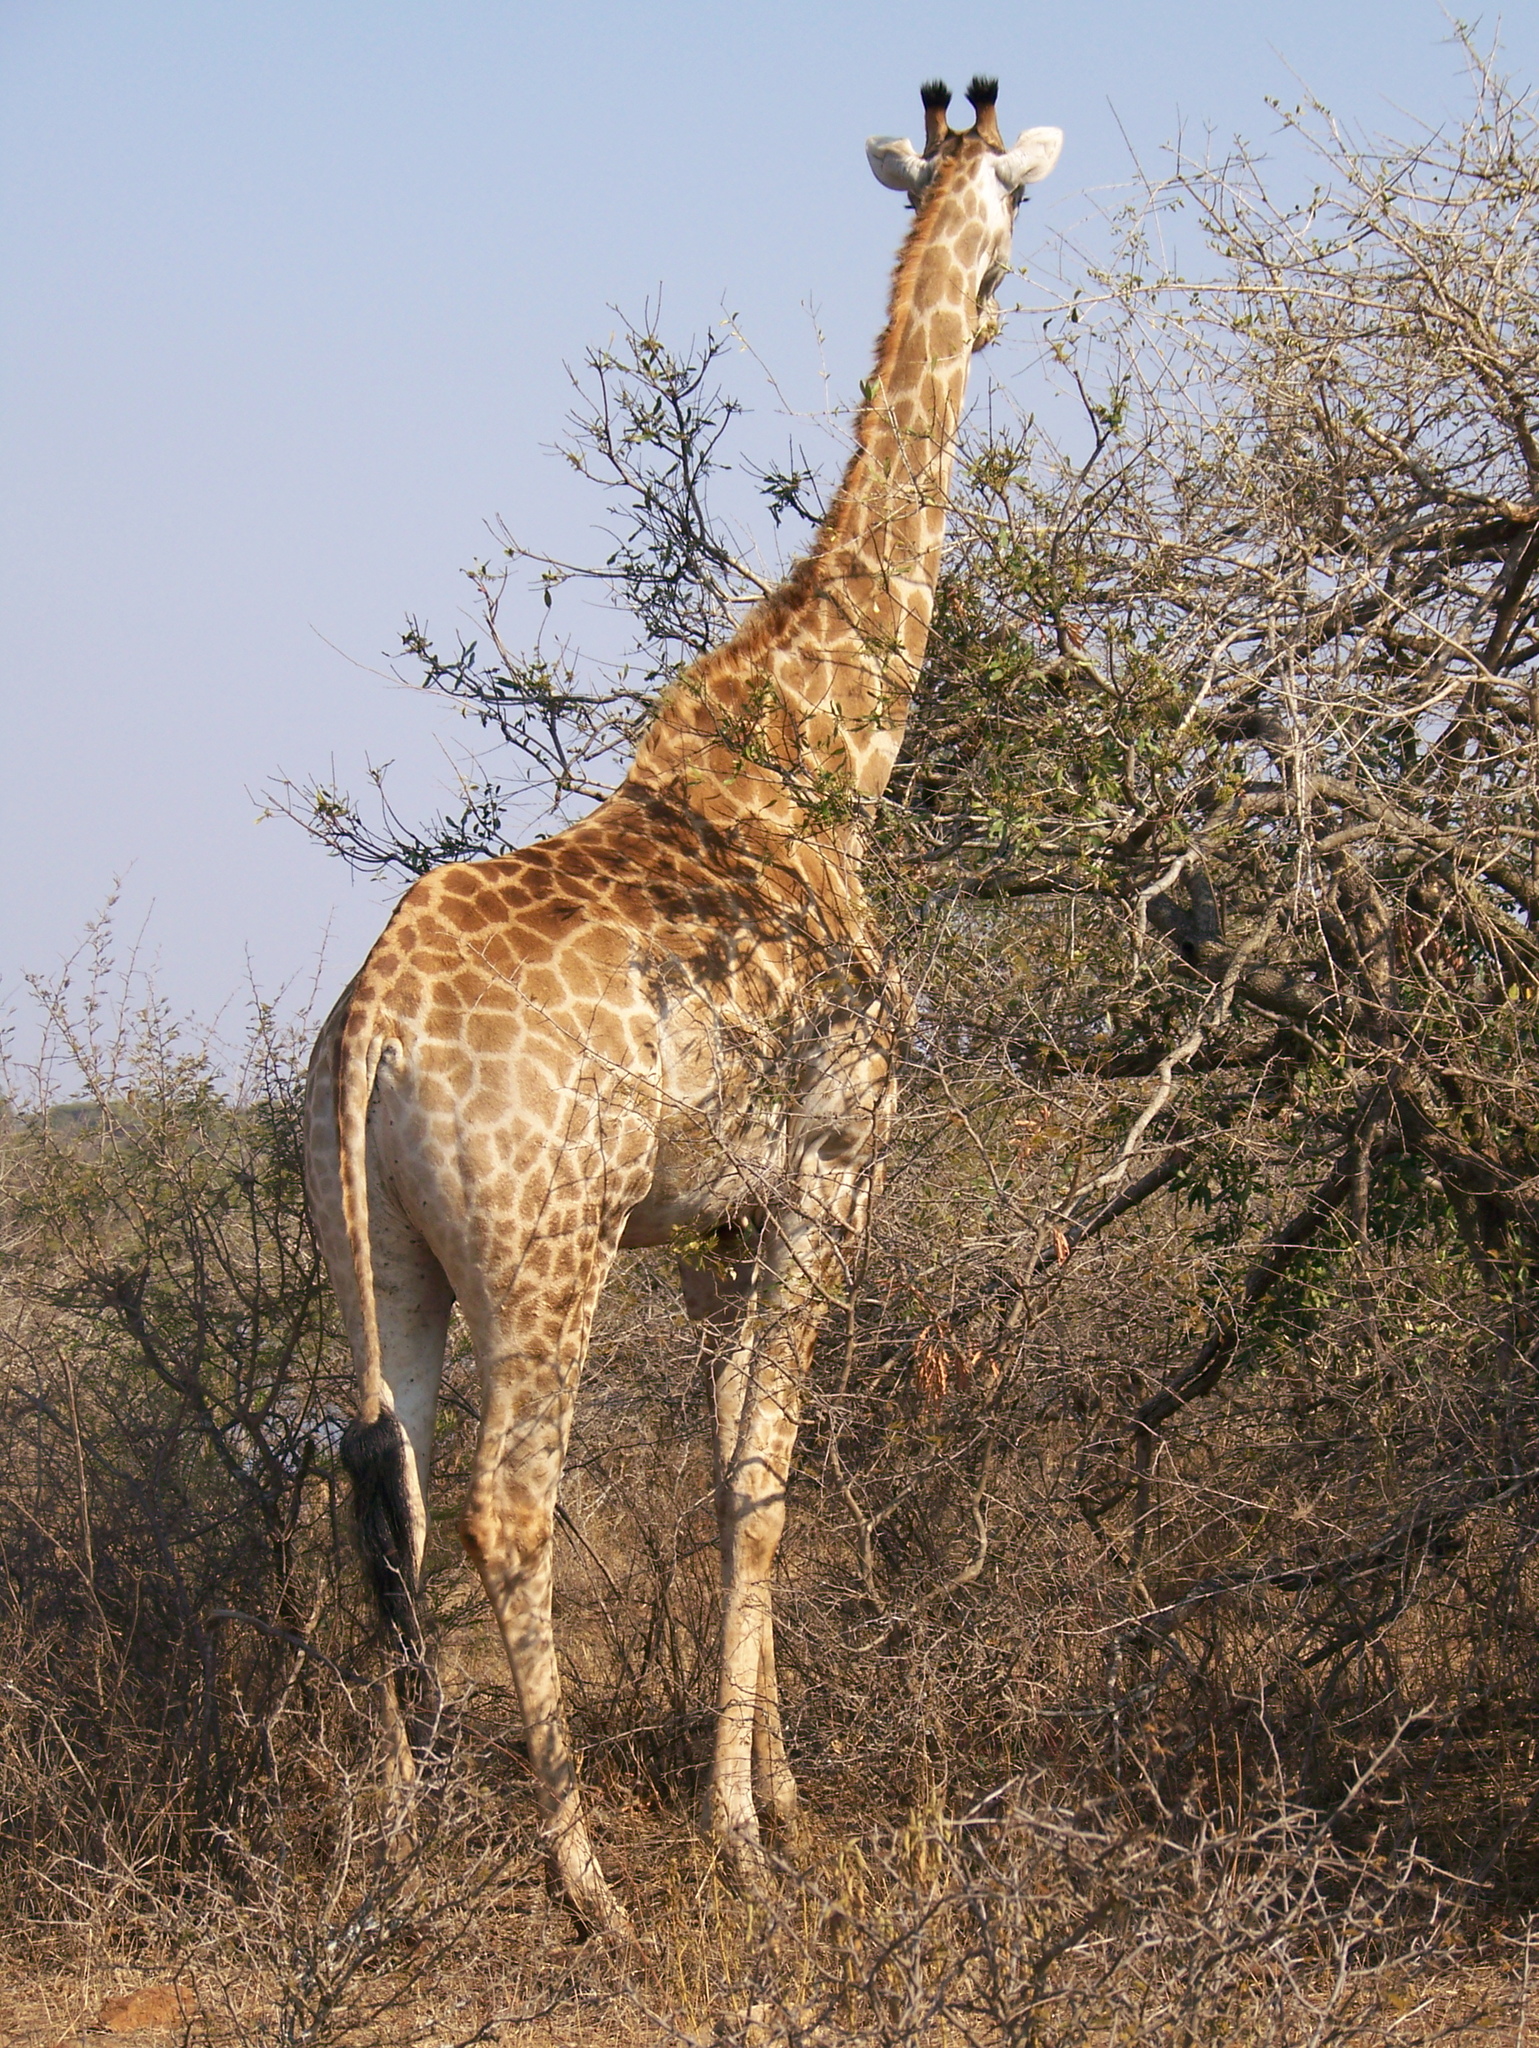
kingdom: Animalia
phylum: Chordata
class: Mammalia
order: Artiodactyla
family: Giraffidae
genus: Giraffa
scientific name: Giraffa giraffa
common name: Southern giraffe
